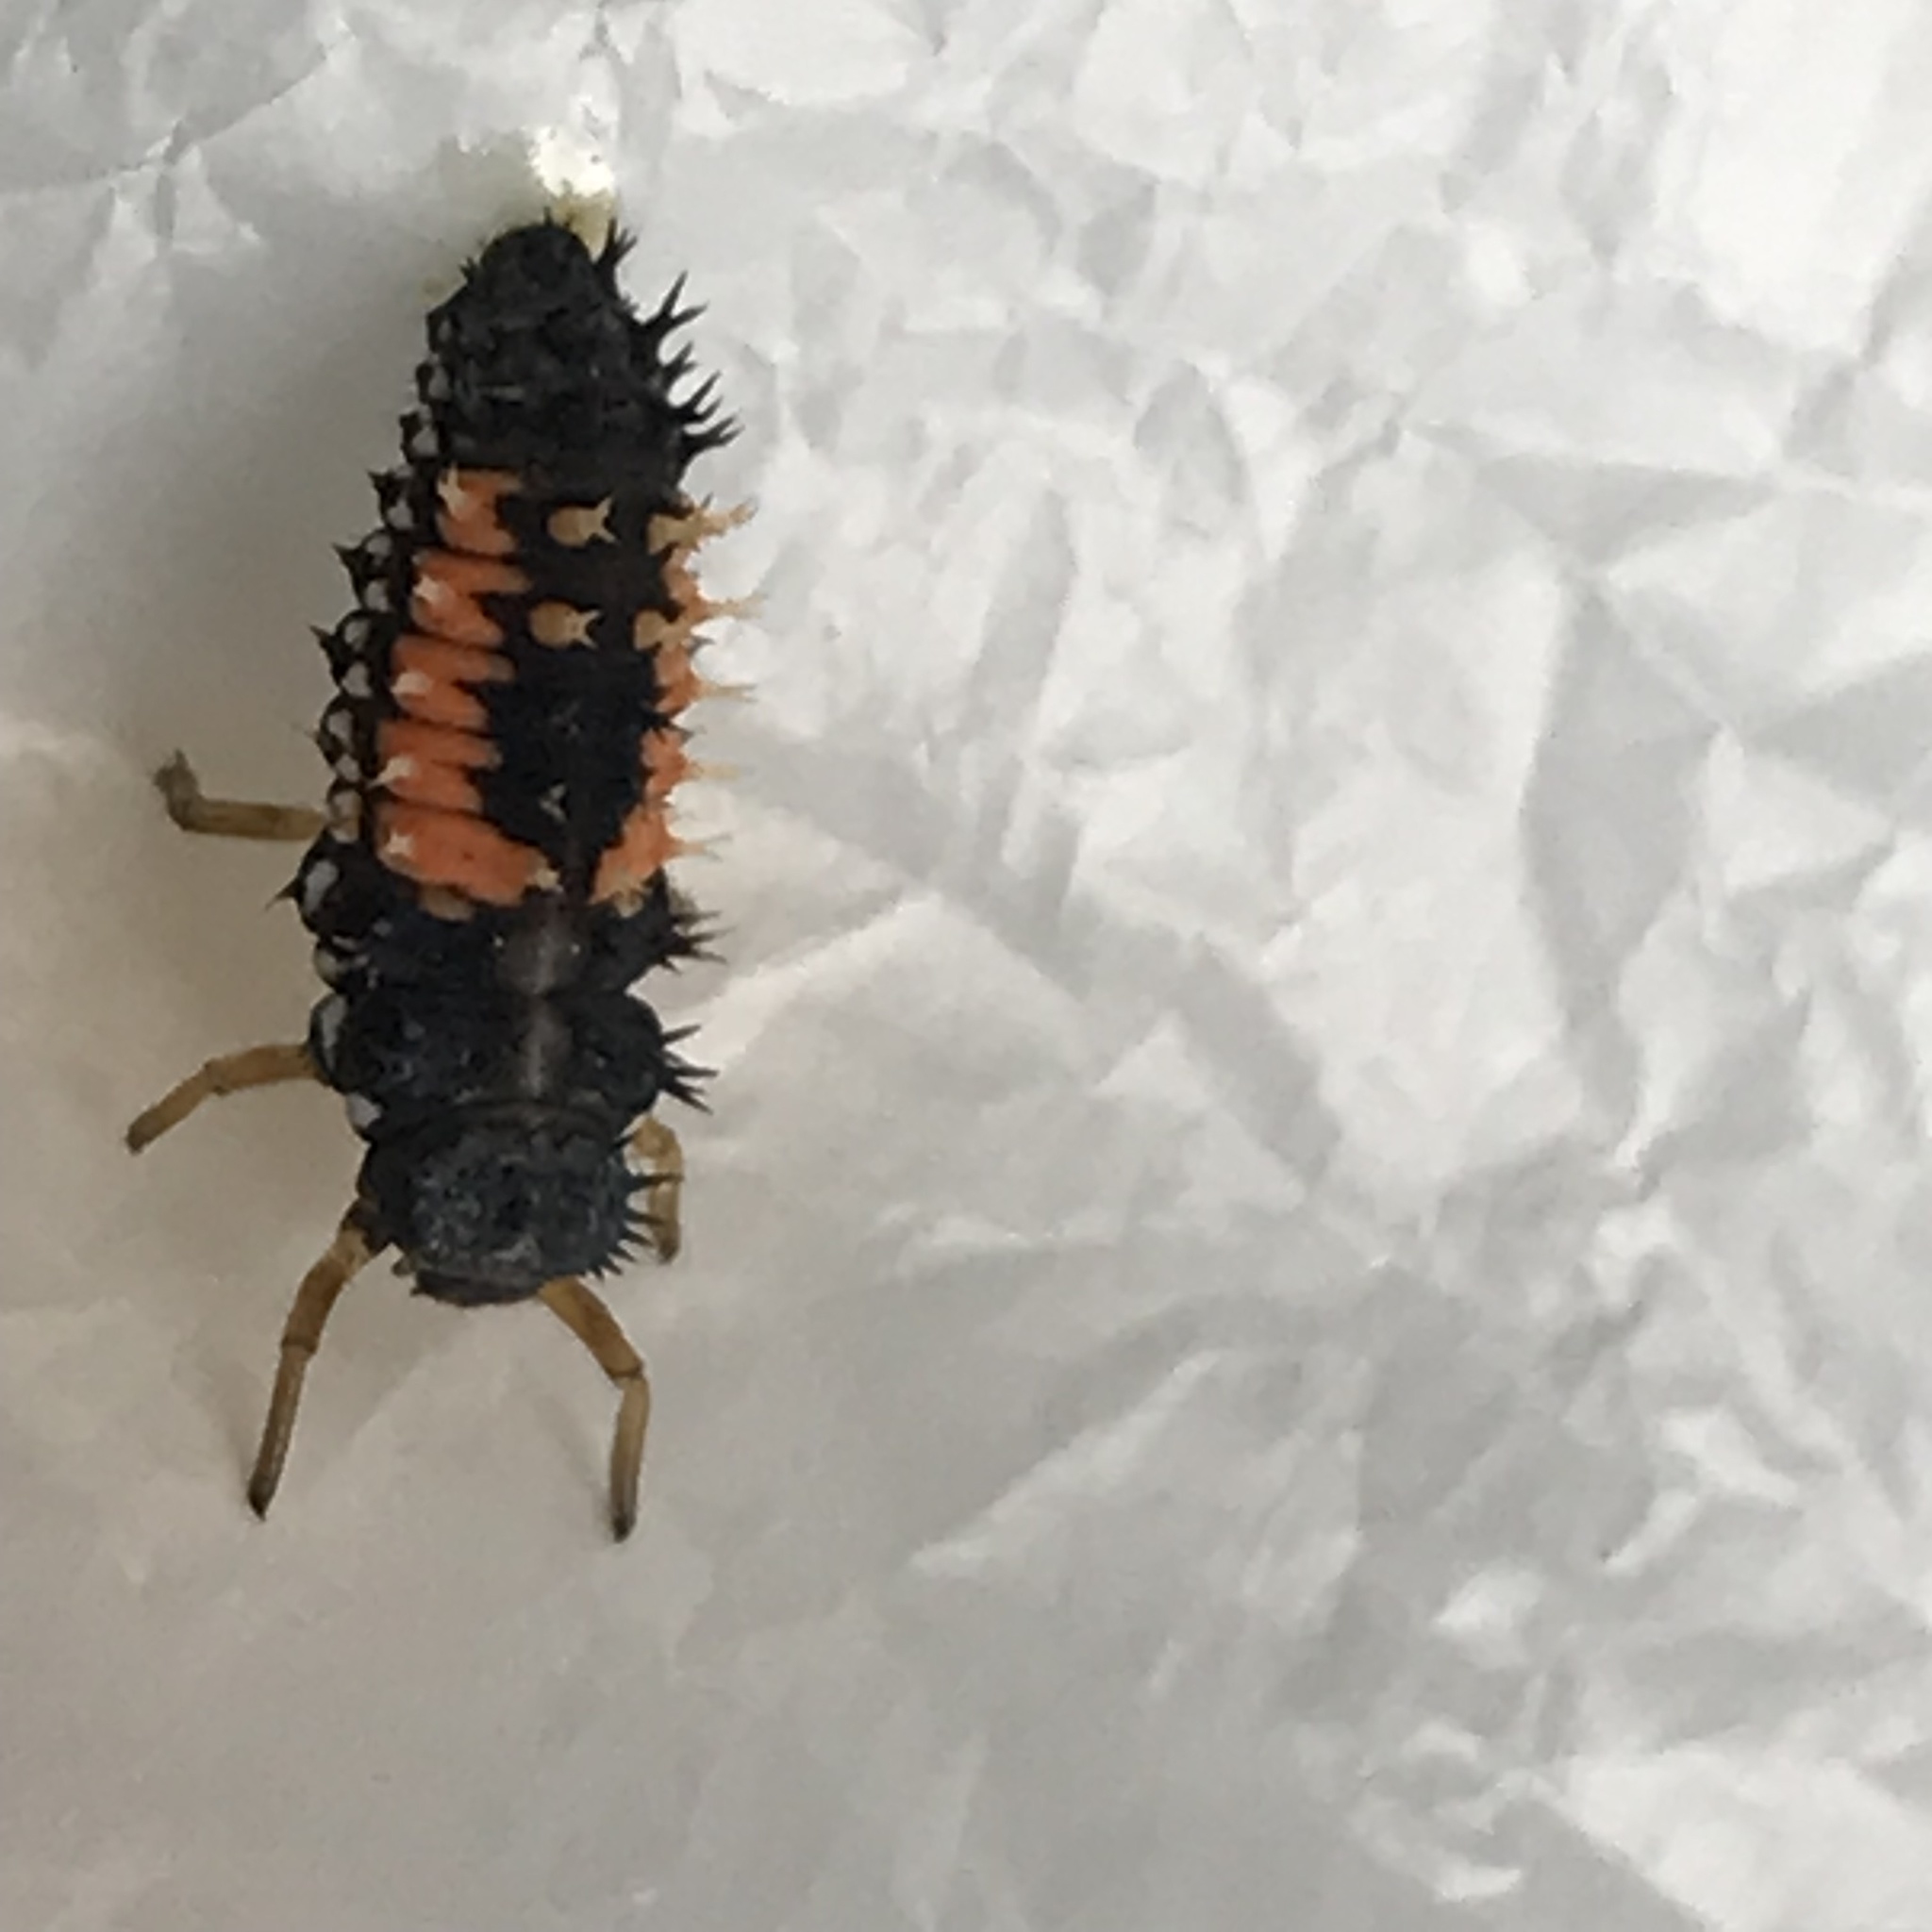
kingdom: Animalia
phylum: Arthropoda
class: Insecta
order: Coleoptera
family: Coccinellidae
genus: Harmonia
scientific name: Harmonia axyridis
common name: Harlequin ladybird
